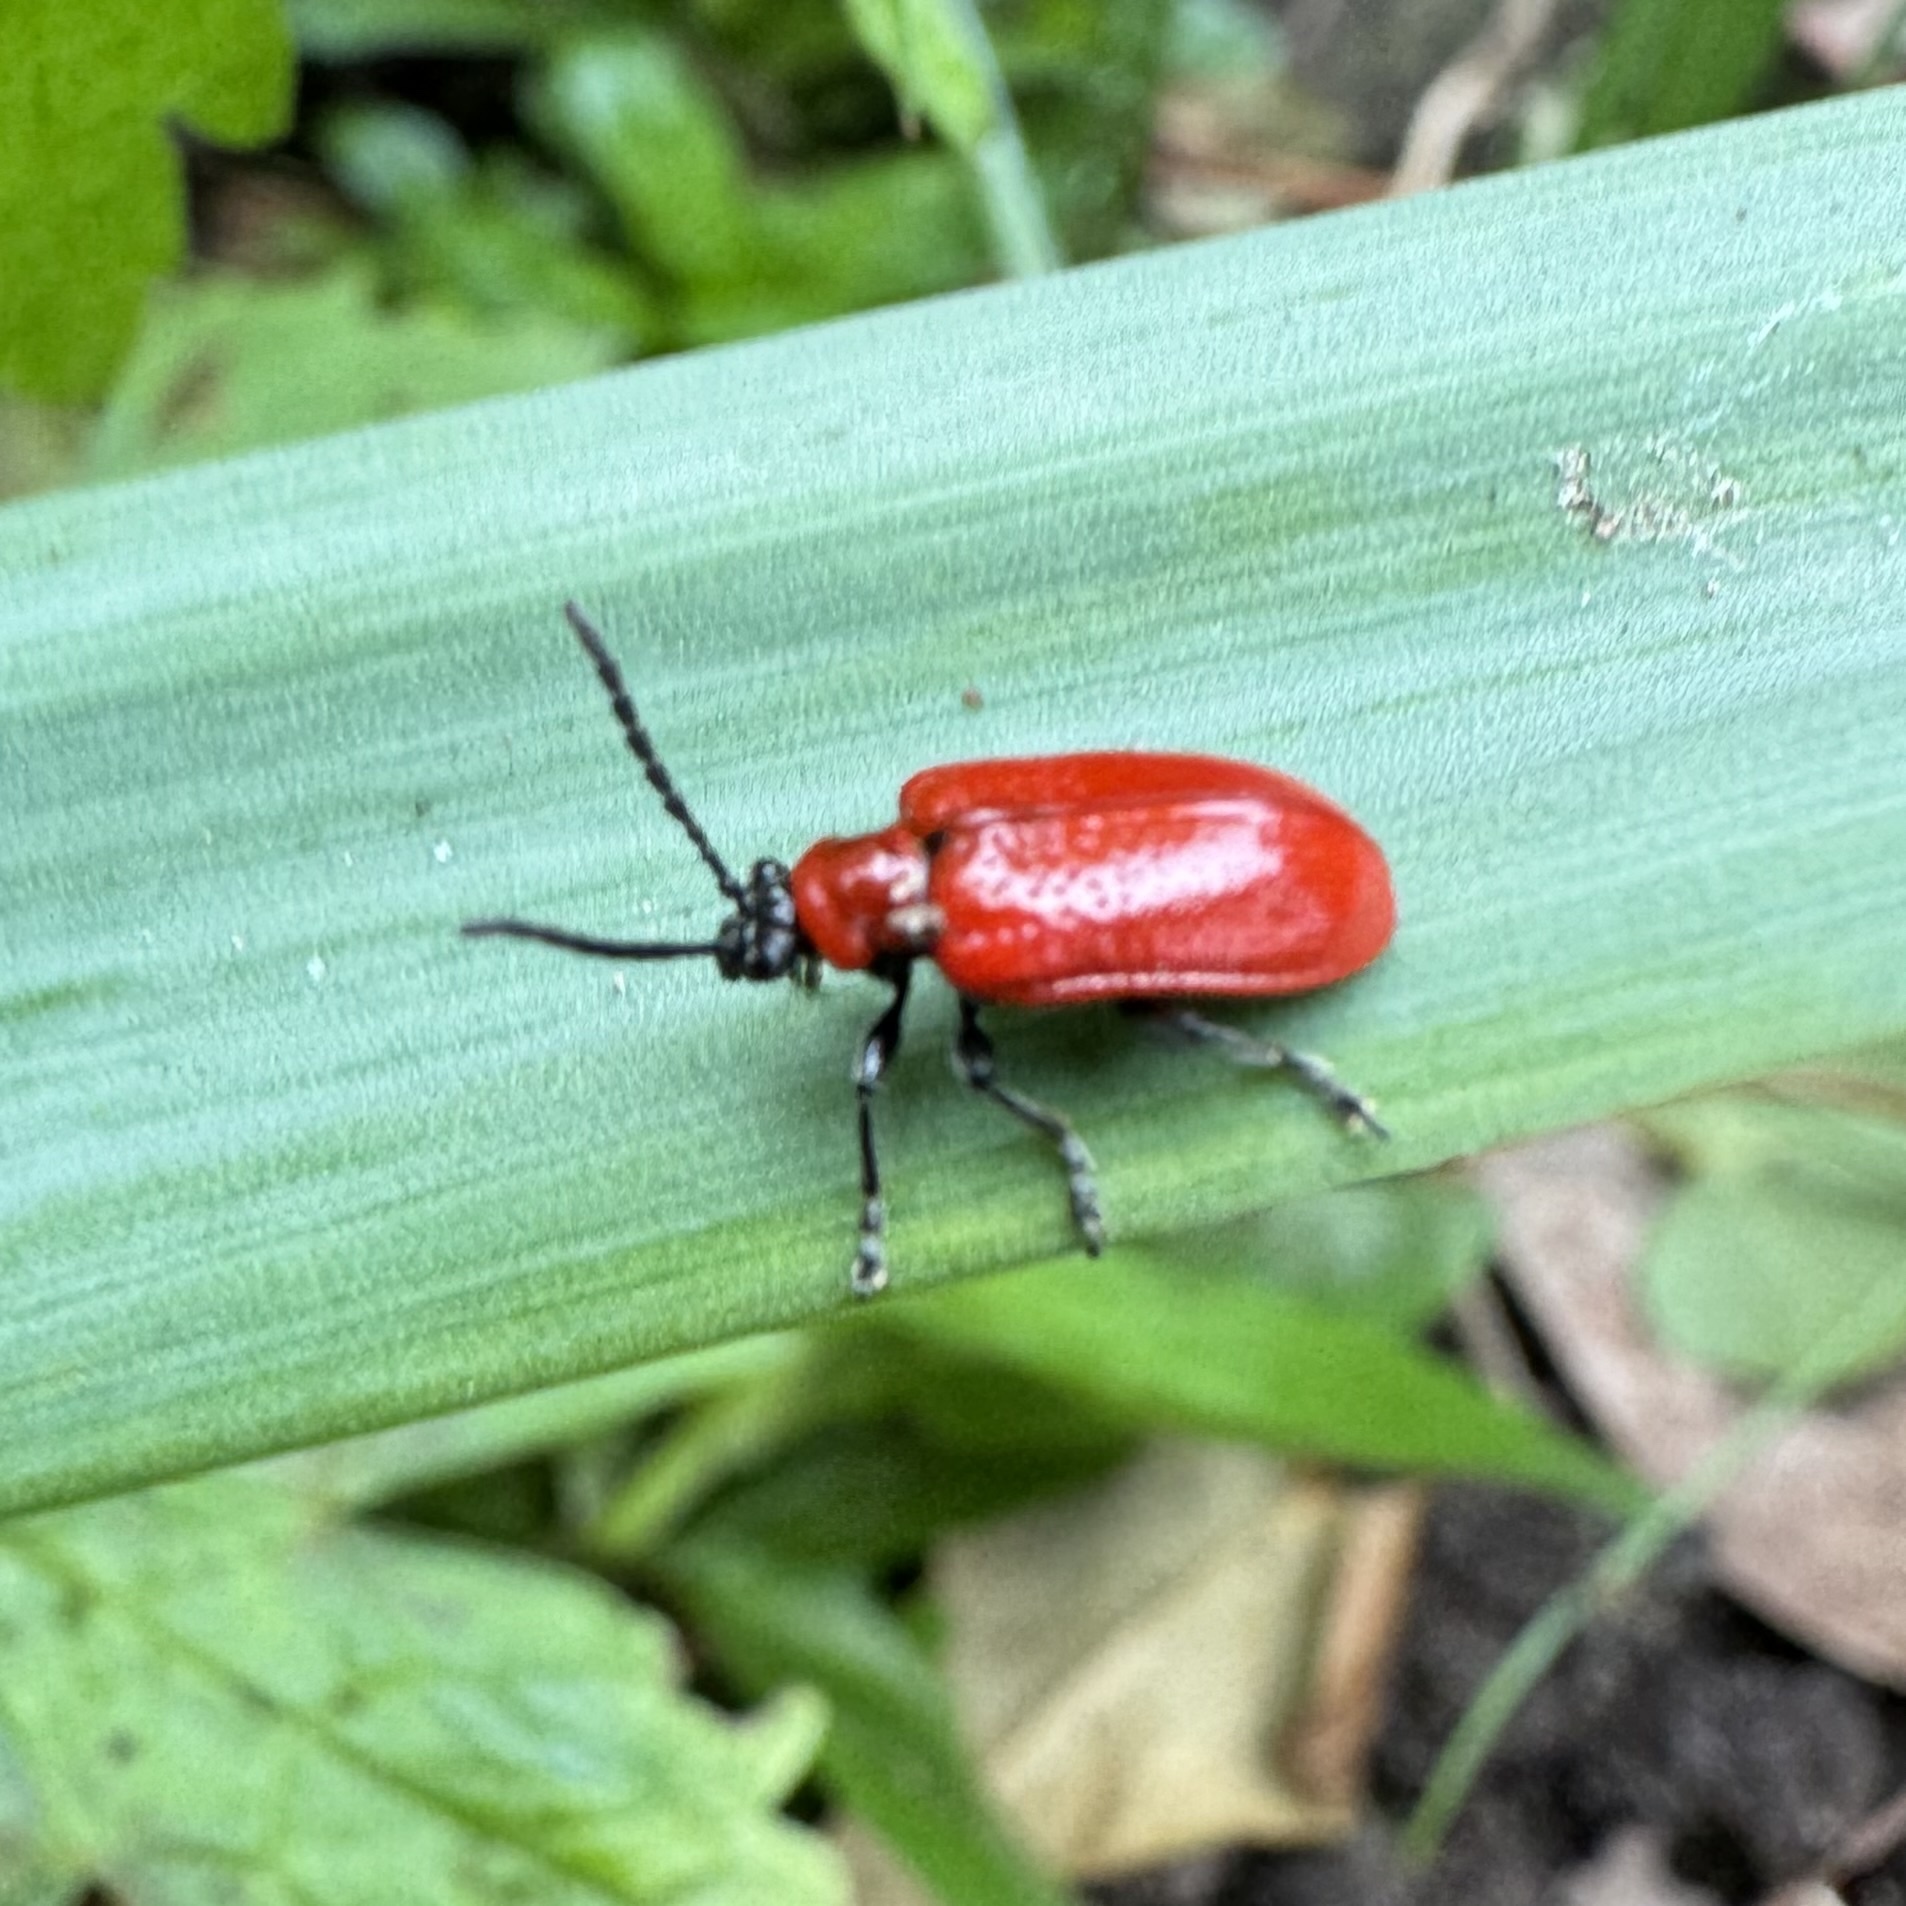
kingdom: Animalia
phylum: Arthropoda
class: Insecta
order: Coleoptera
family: Chrysomelidae
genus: Lilioceris
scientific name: Lilioceris lilii
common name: Lily beetle
